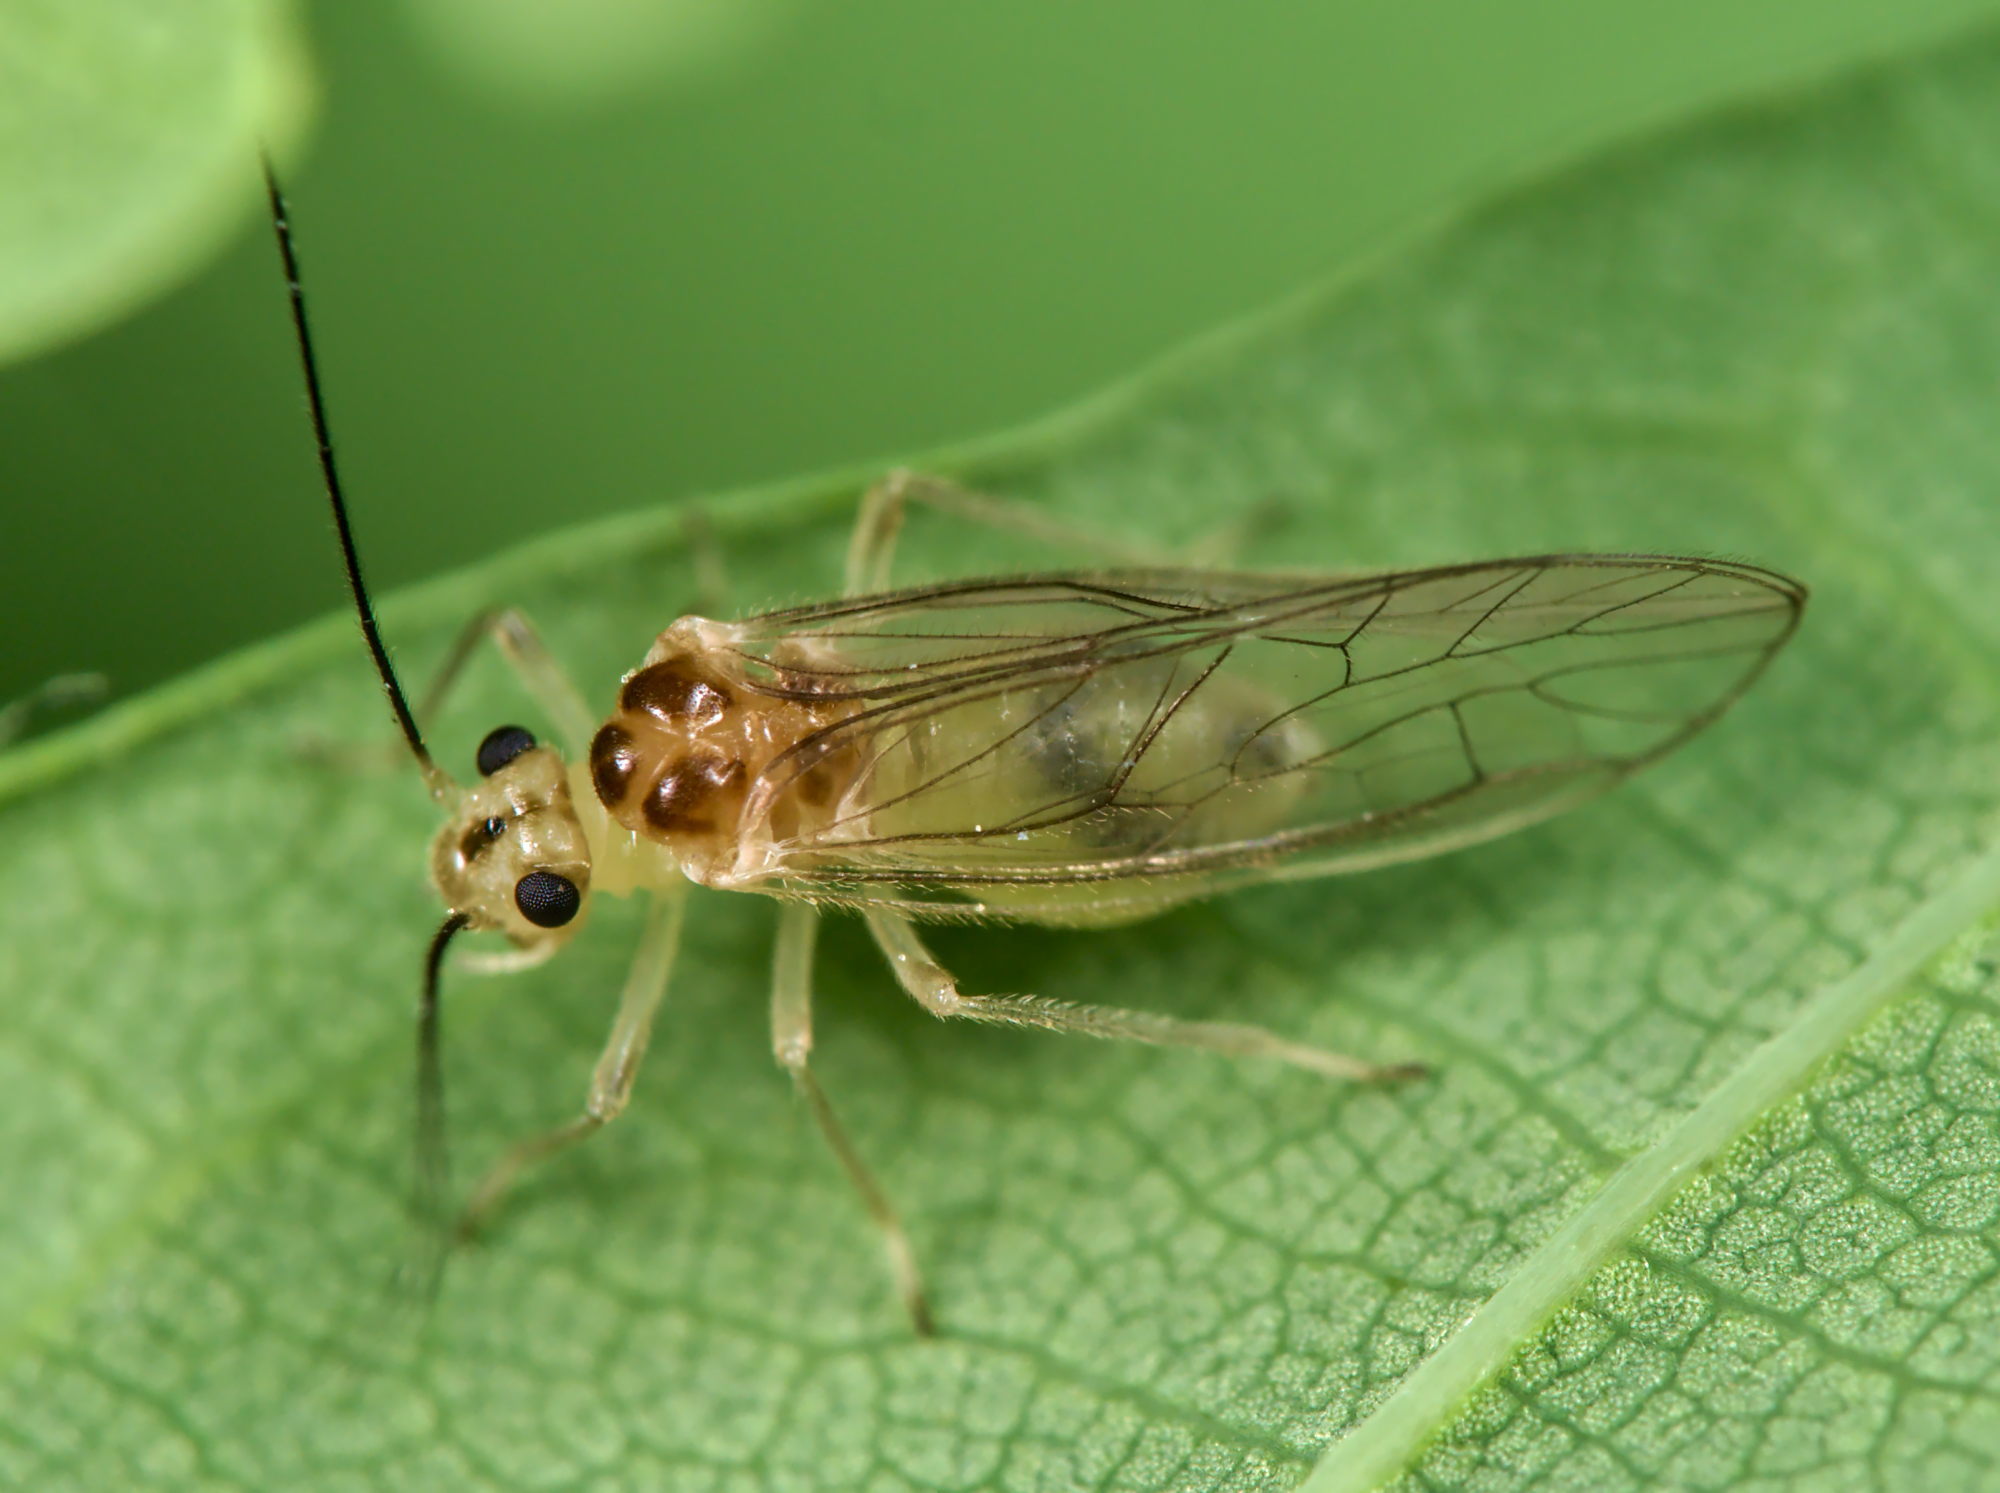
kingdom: Animalia
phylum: Arthropoda
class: Insecta
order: Psocodea
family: Stenopsocidae
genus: Stenopsocus
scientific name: Stenopsocus immaculatus
